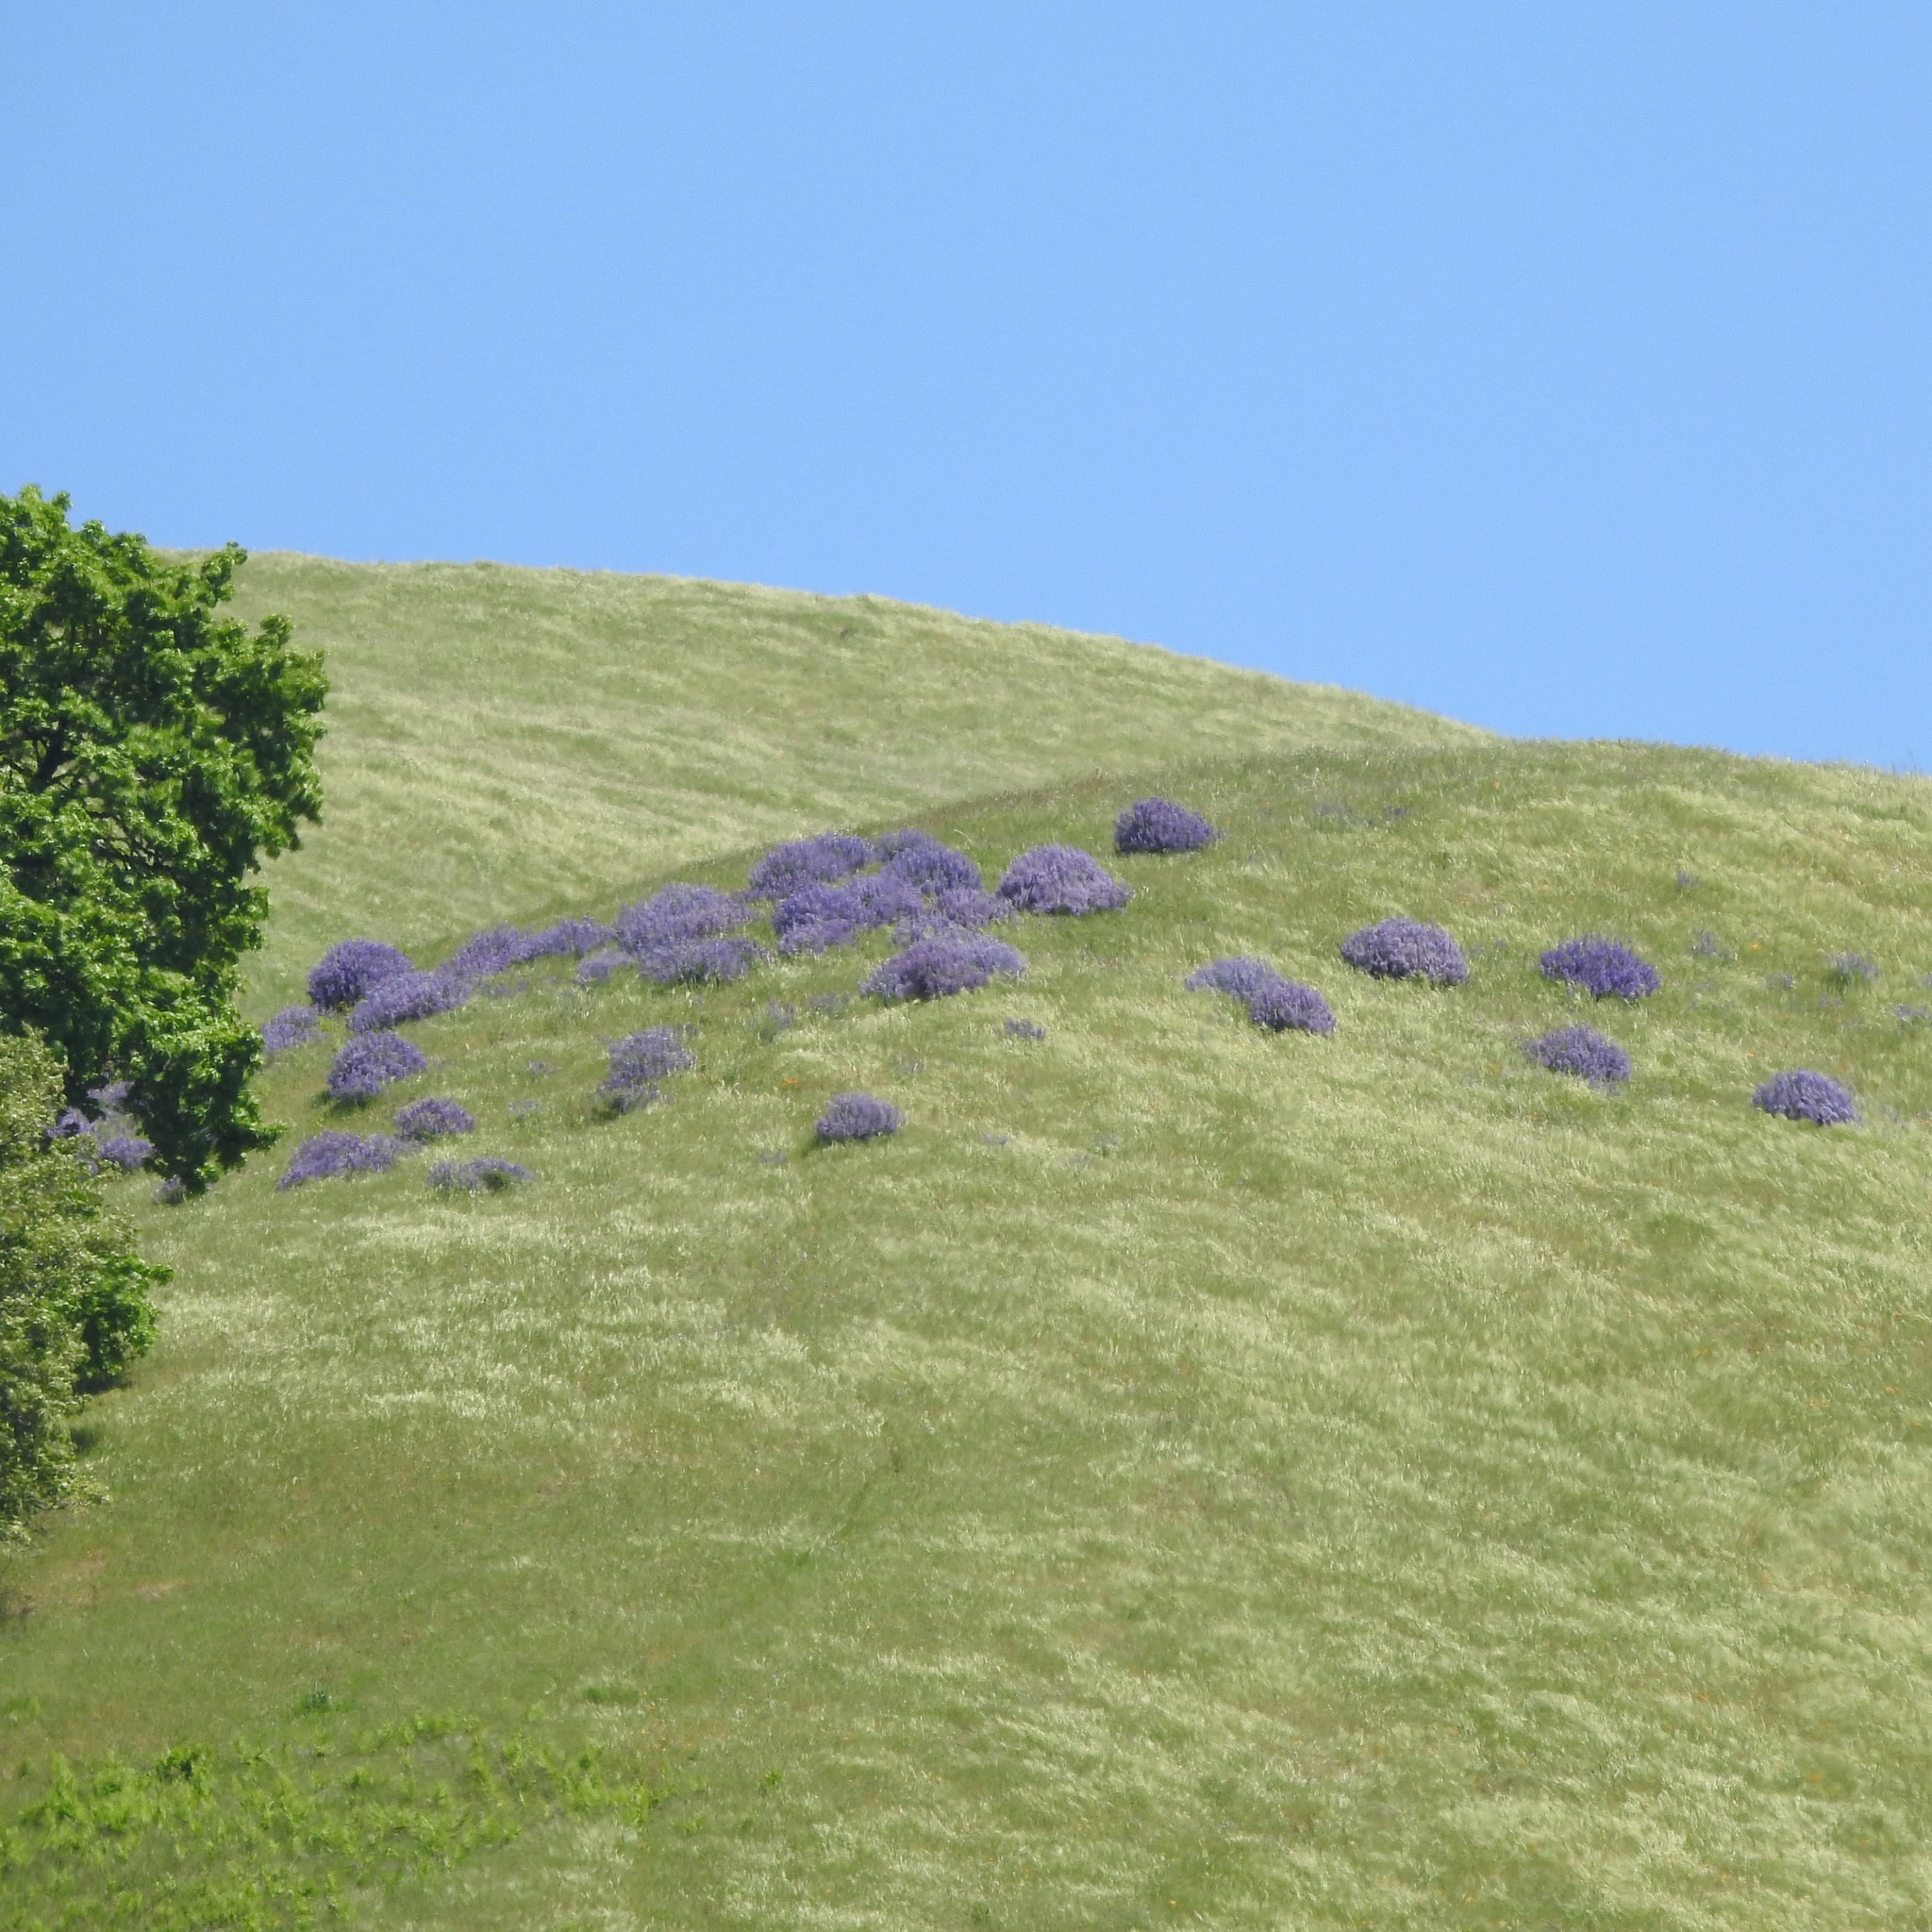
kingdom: Plantae
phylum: Tracheophyta
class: Magnoliopsida
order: Fabales
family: Fabaceae
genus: Lupinus
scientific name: Lupinus albifrons
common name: Foothill lupine
